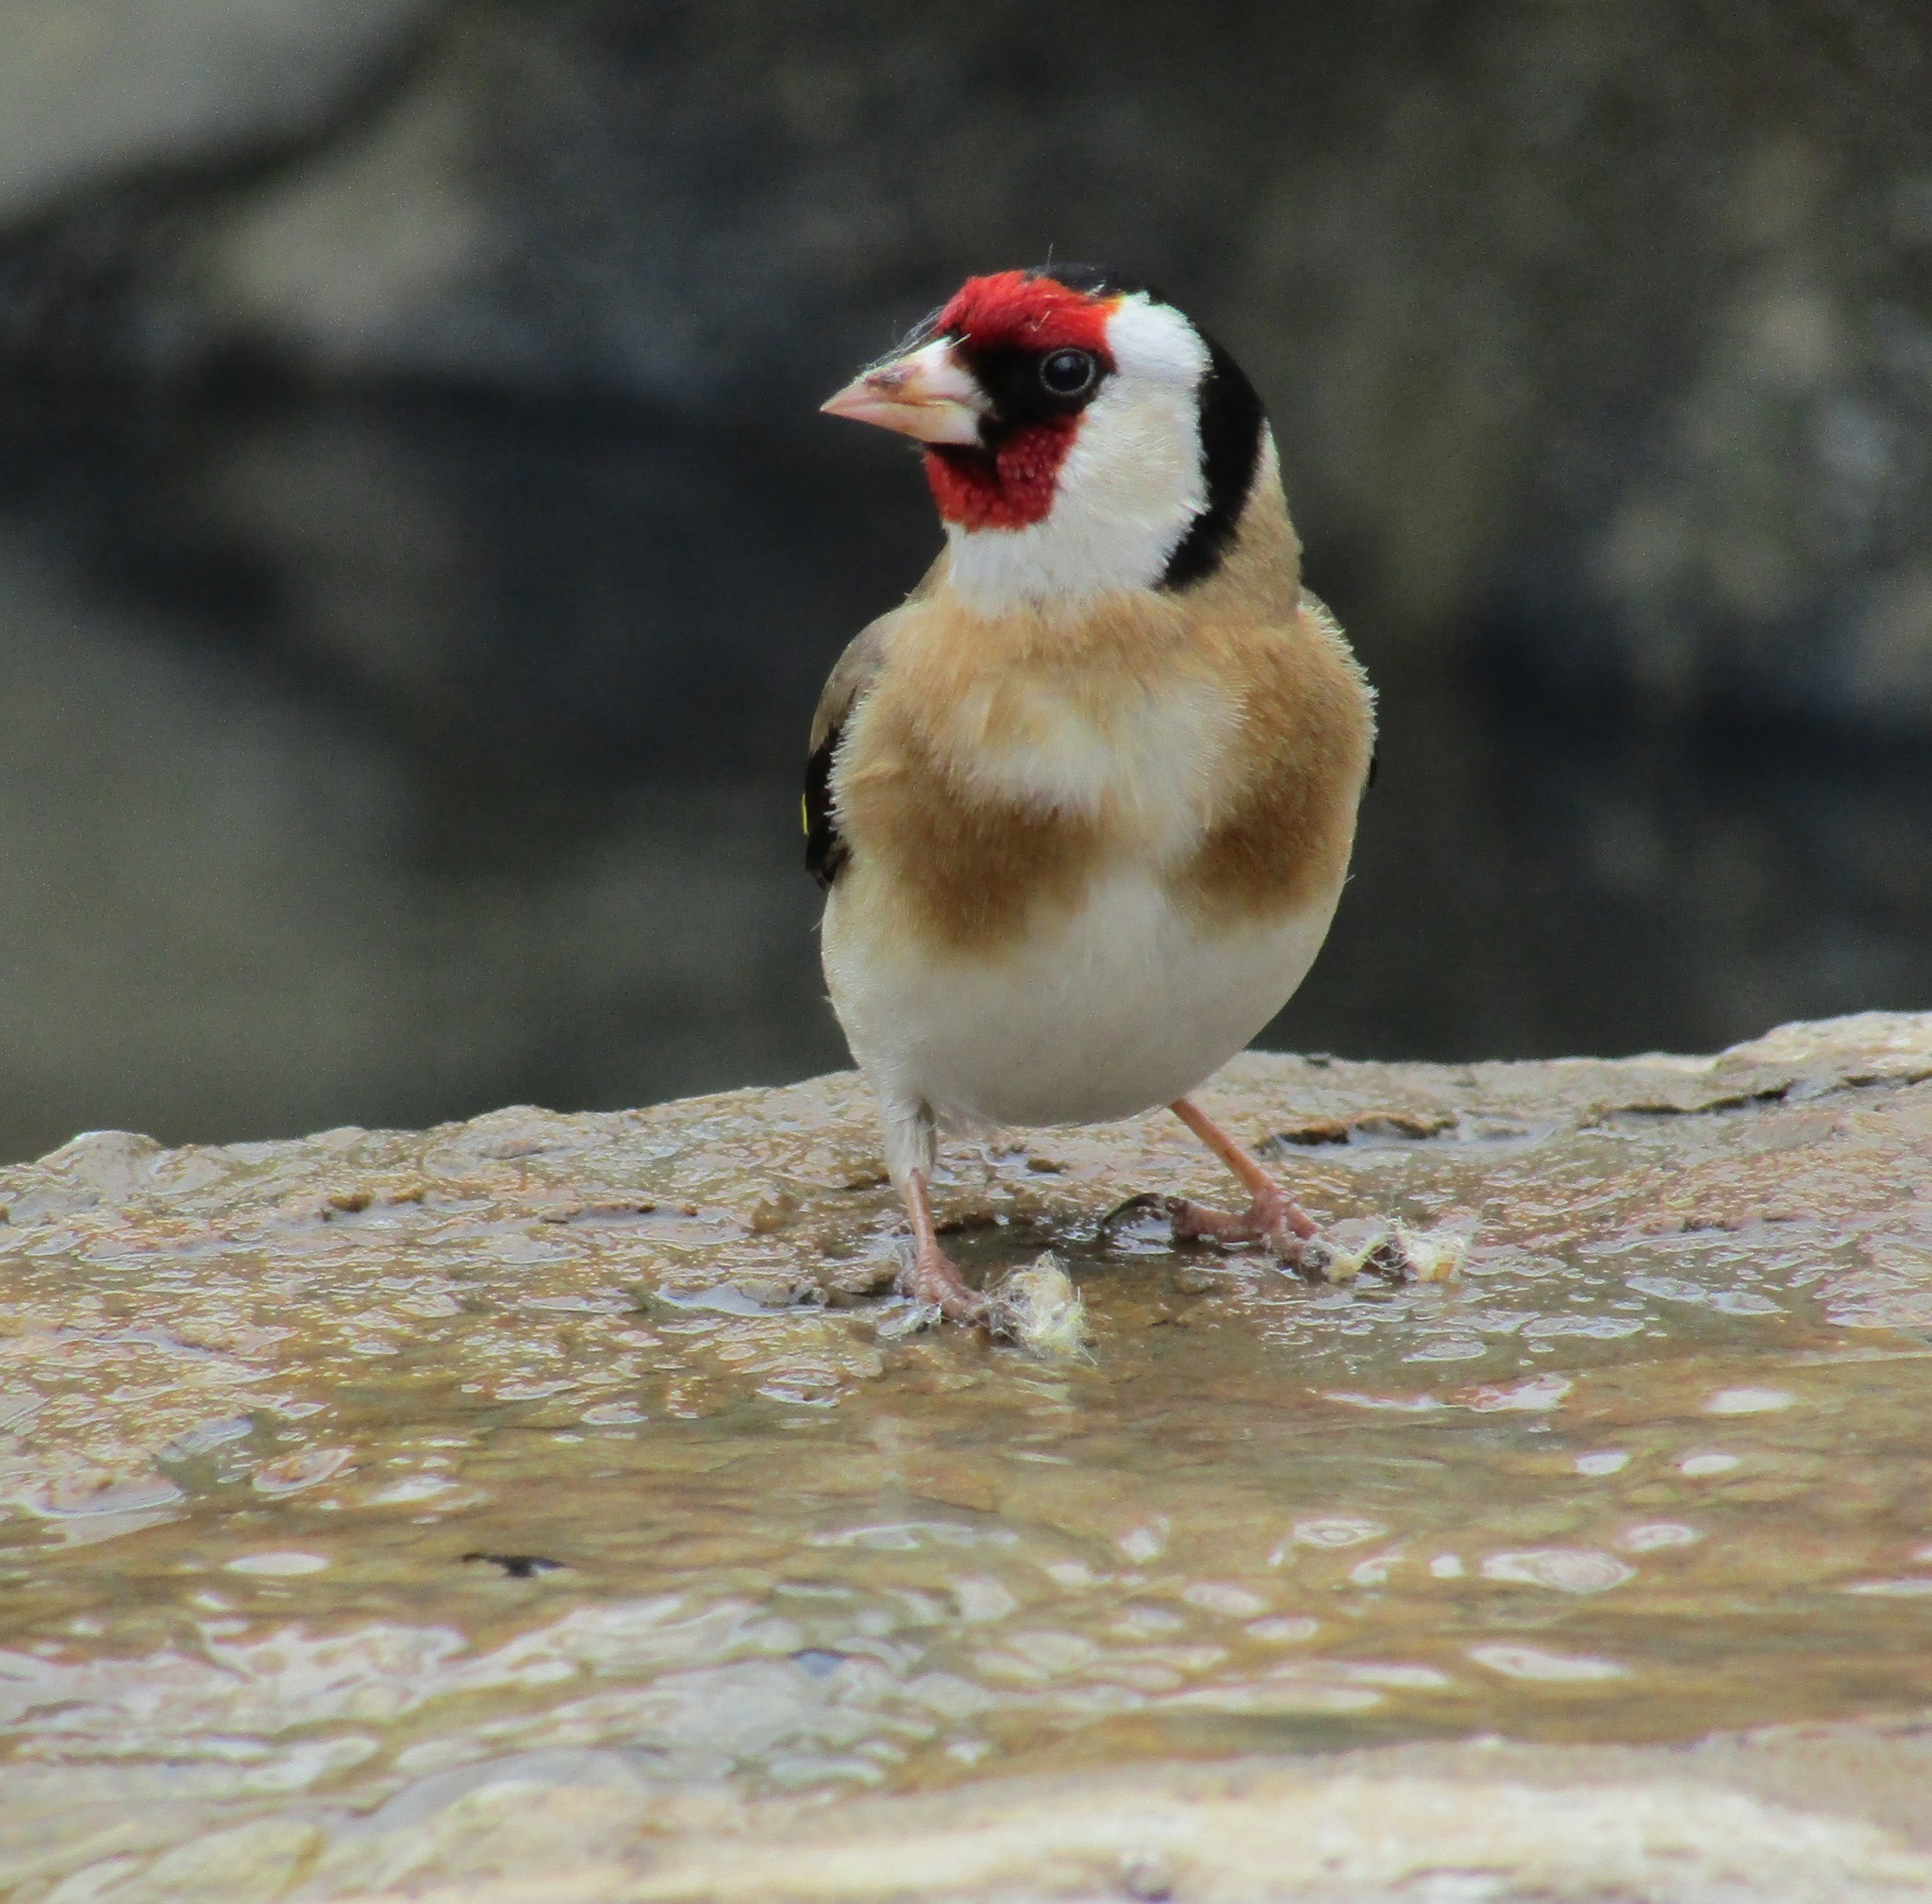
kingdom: Animalia
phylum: Chordata
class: Aves
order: Passeriformes
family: Fringillidae
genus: Carduelis
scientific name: Carduelis carduelis
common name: European goldfinch
